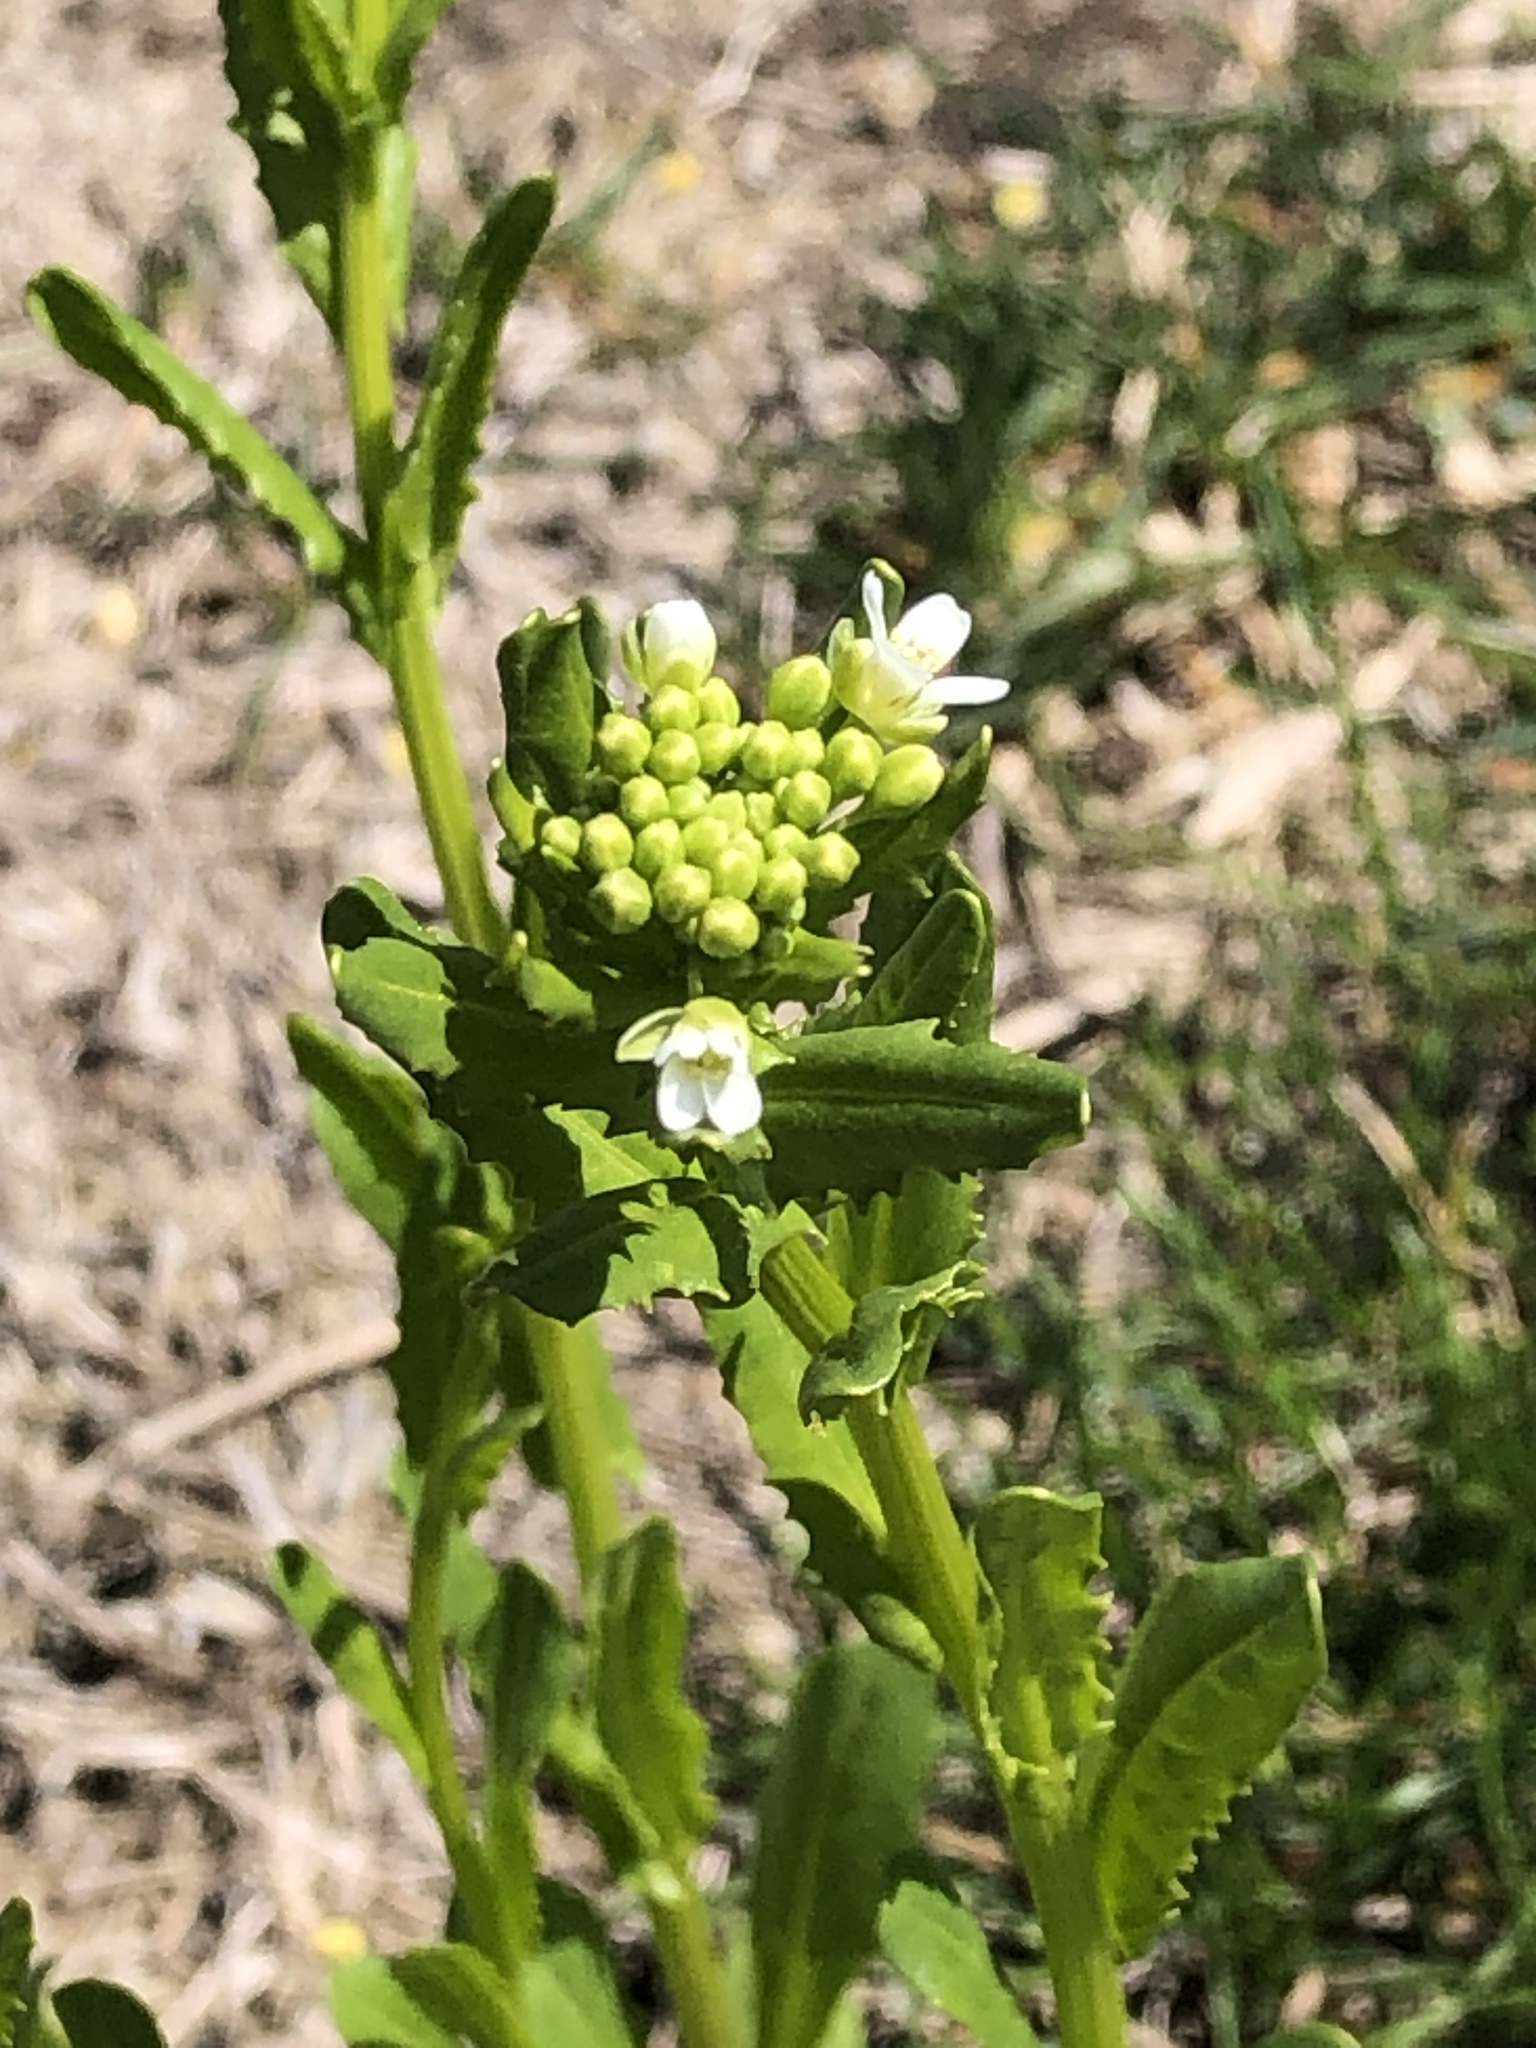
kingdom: Plantae
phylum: Tracheophyta
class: Magnoliopsida
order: Brassicales
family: Brassicaceae
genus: Thlaspi
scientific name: Thlaspi arvense
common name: Field pennycress
